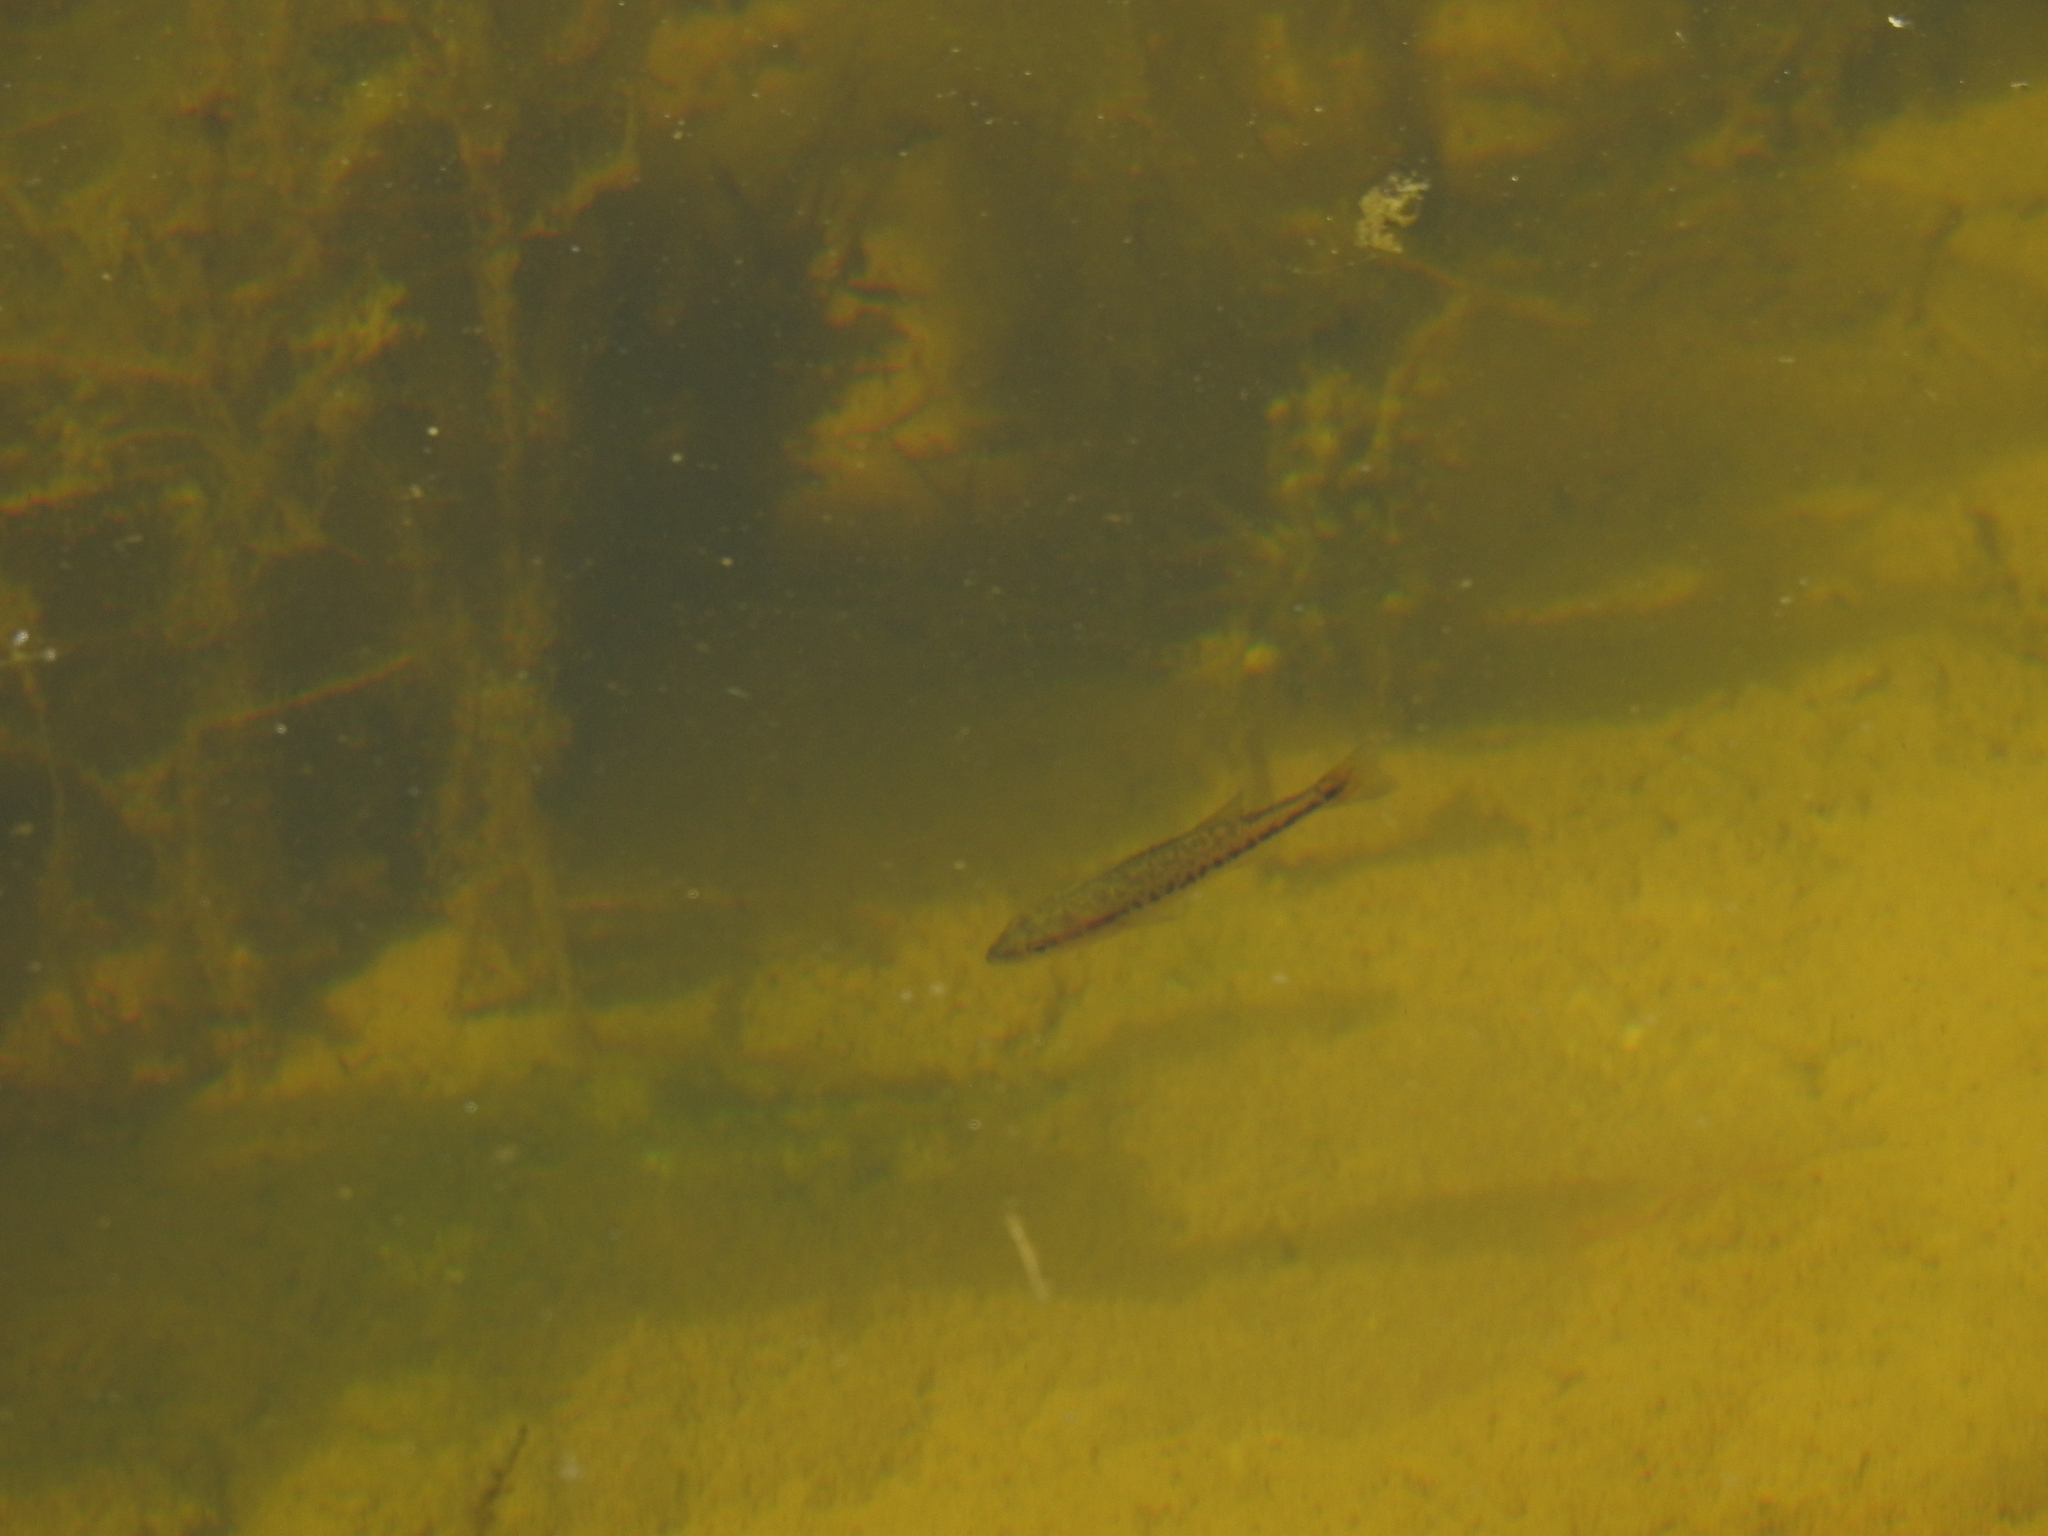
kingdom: Animalia
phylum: Chordata
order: Perciformes
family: Centrarchidae
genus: Micropterus
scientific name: Micropterus
